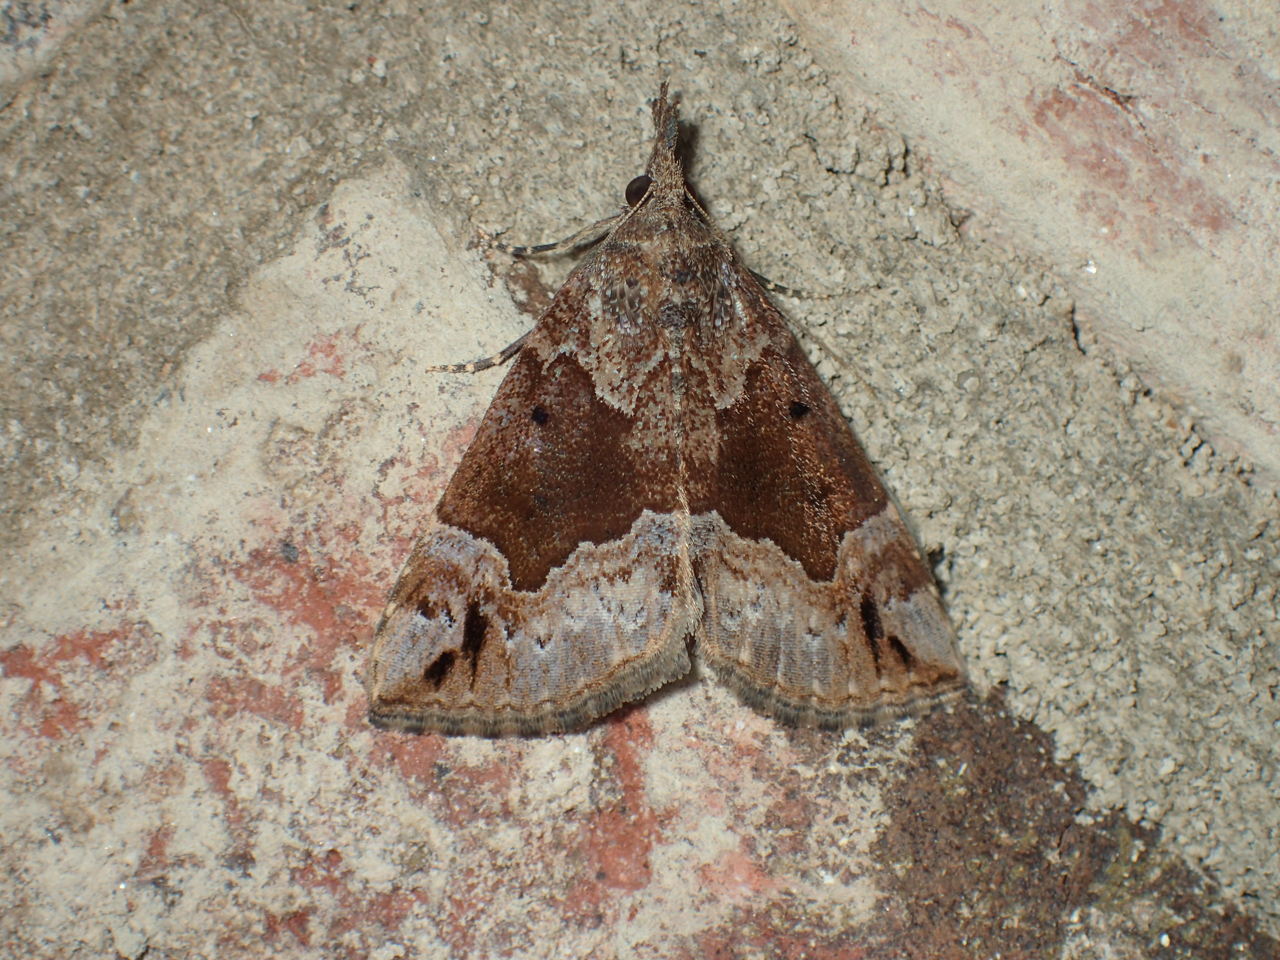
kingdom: Animalia
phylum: Arthropoda
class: Insecta
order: Lepidoptera
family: Erebidae
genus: Hypena
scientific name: Hypena palparia
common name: Mottled bomolocha moth
